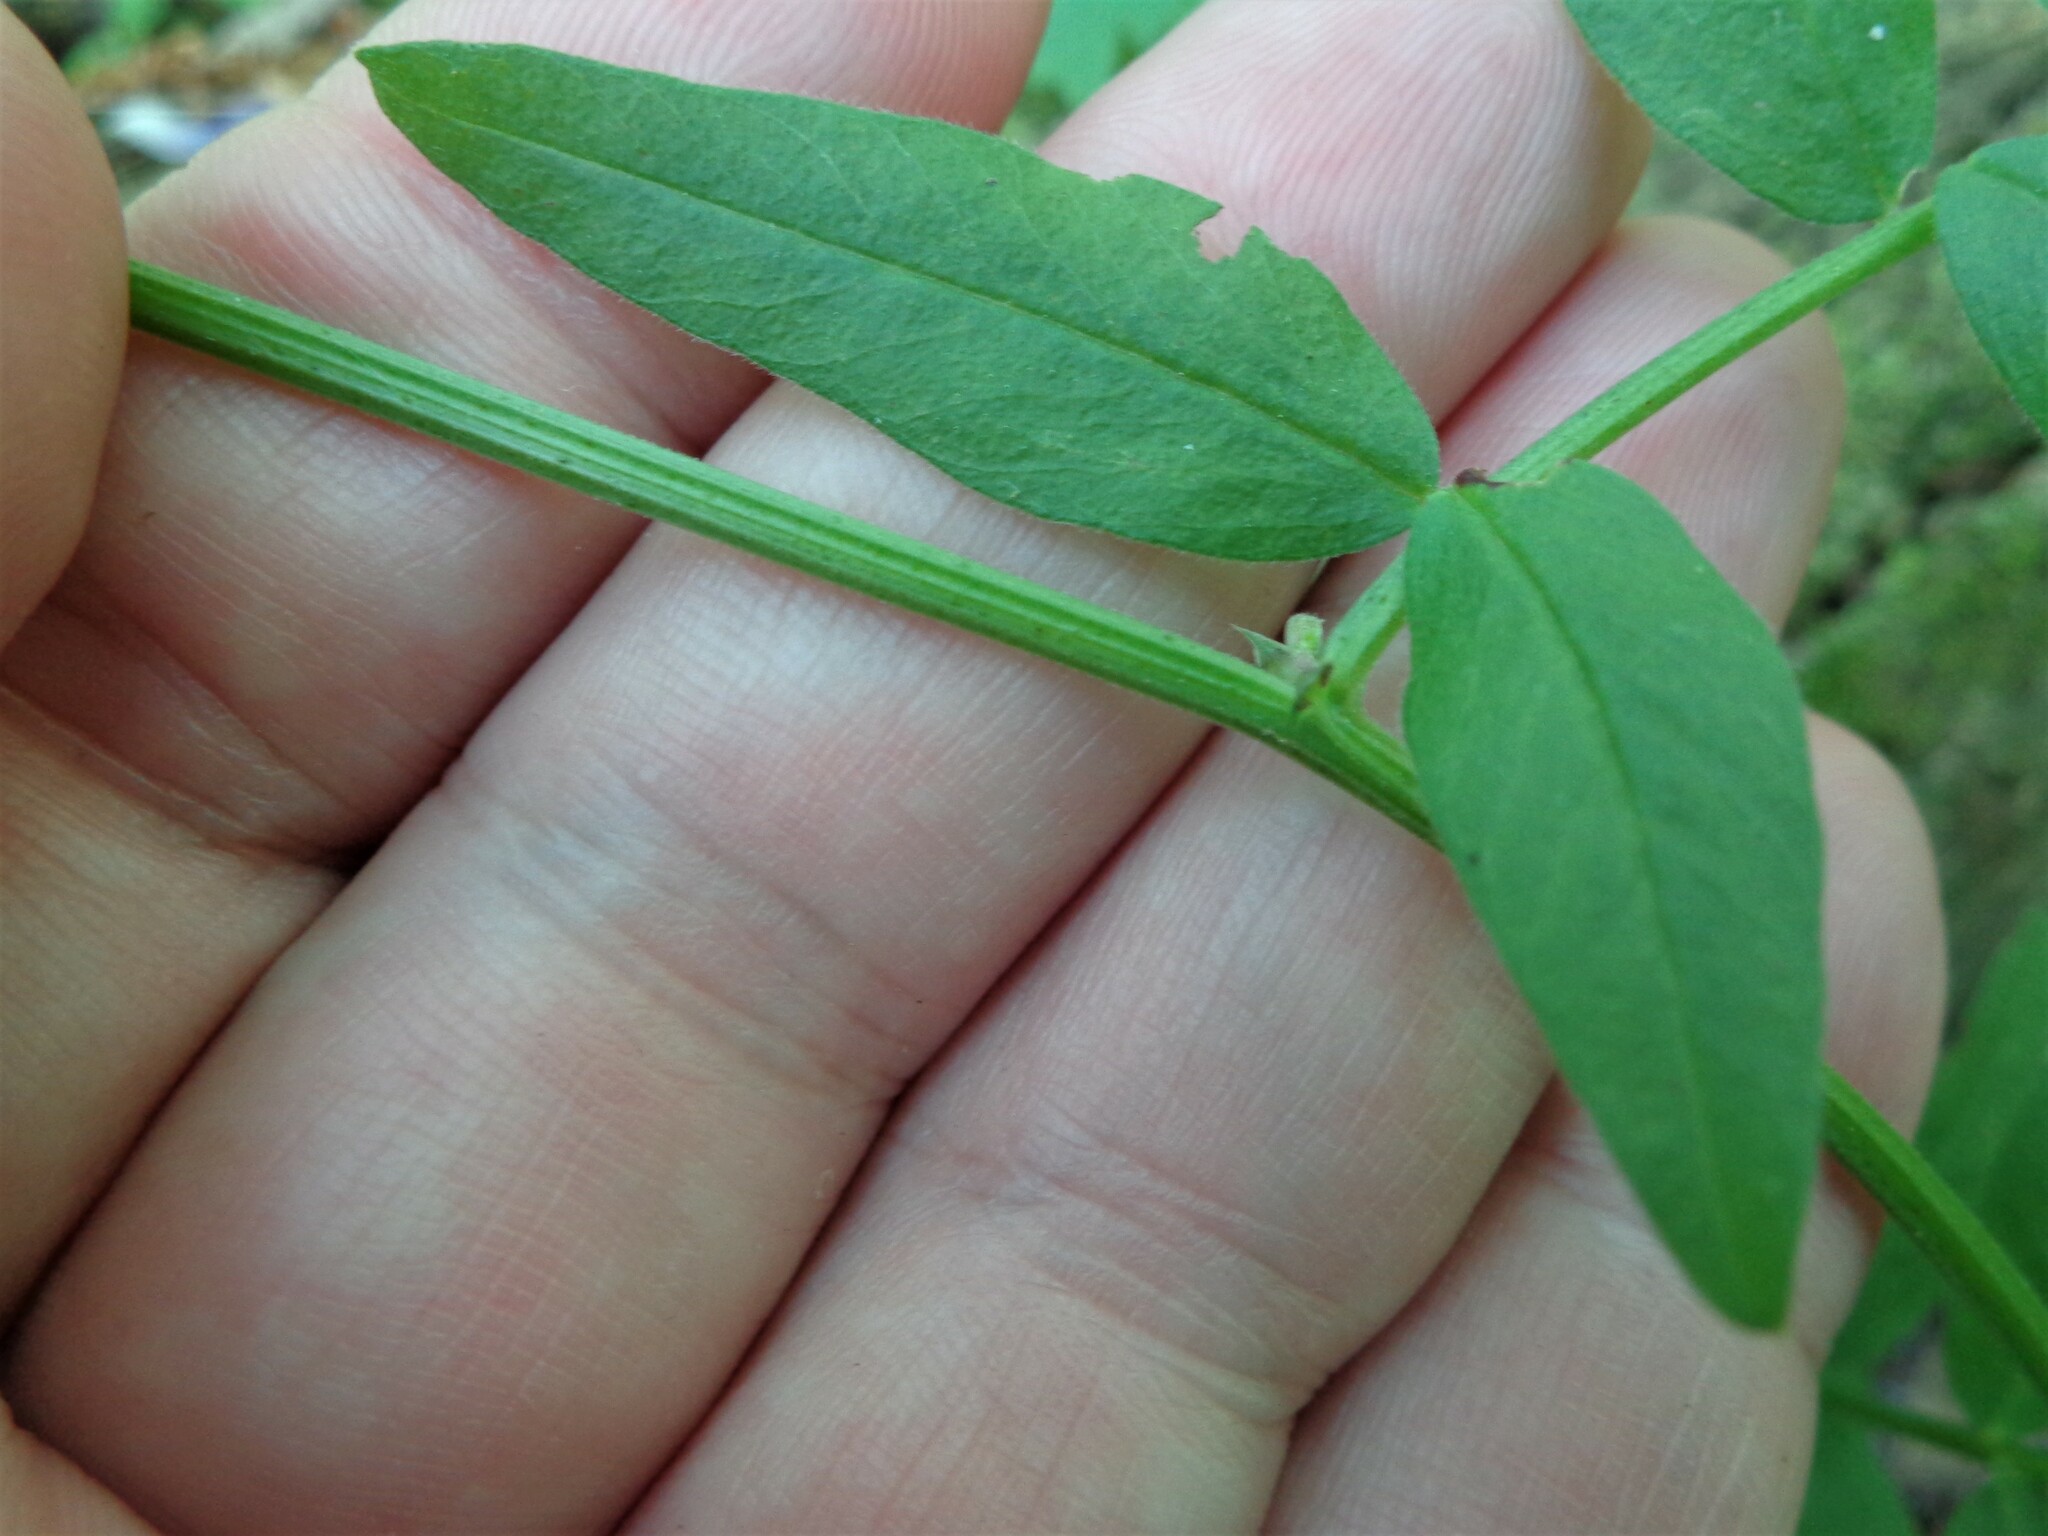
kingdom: Plantae
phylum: Tracheophyta
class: Magnoliopsida
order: Fabales
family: Fabaceae
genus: Vicia
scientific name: Vicia sepium
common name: Bush vetch
